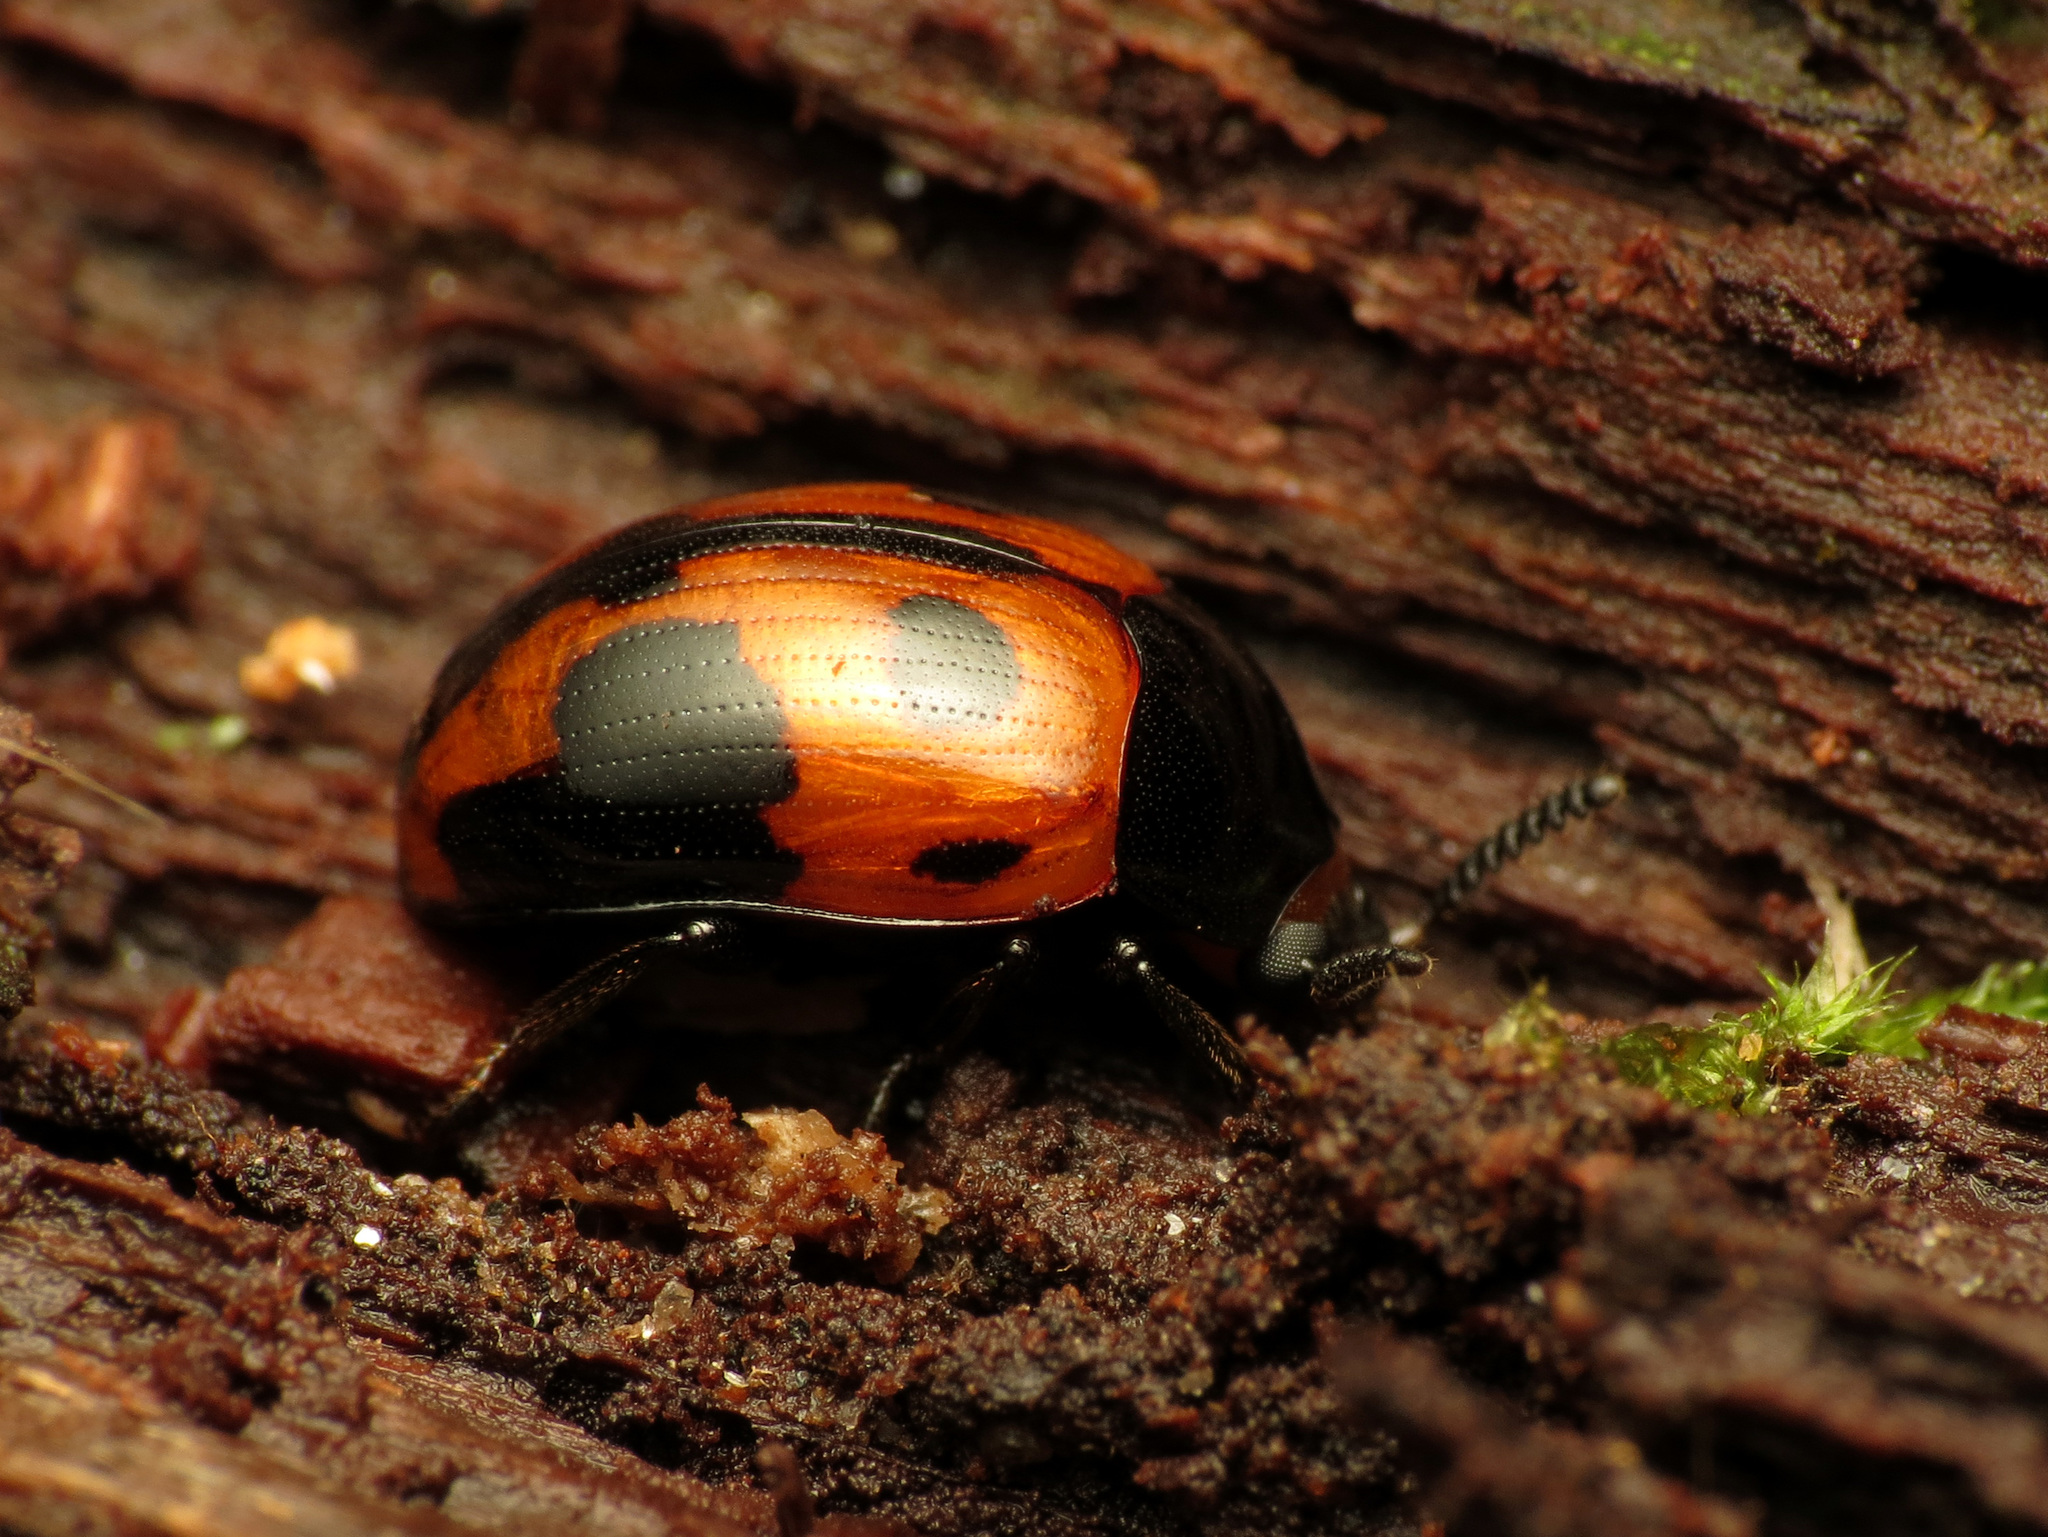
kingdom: Animalia
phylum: Arthropoda
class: Insecta
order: Coleoptera
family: Tenebrionidae
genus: Diaperis
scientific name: Diaperis maculata
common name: Darkling beetle
